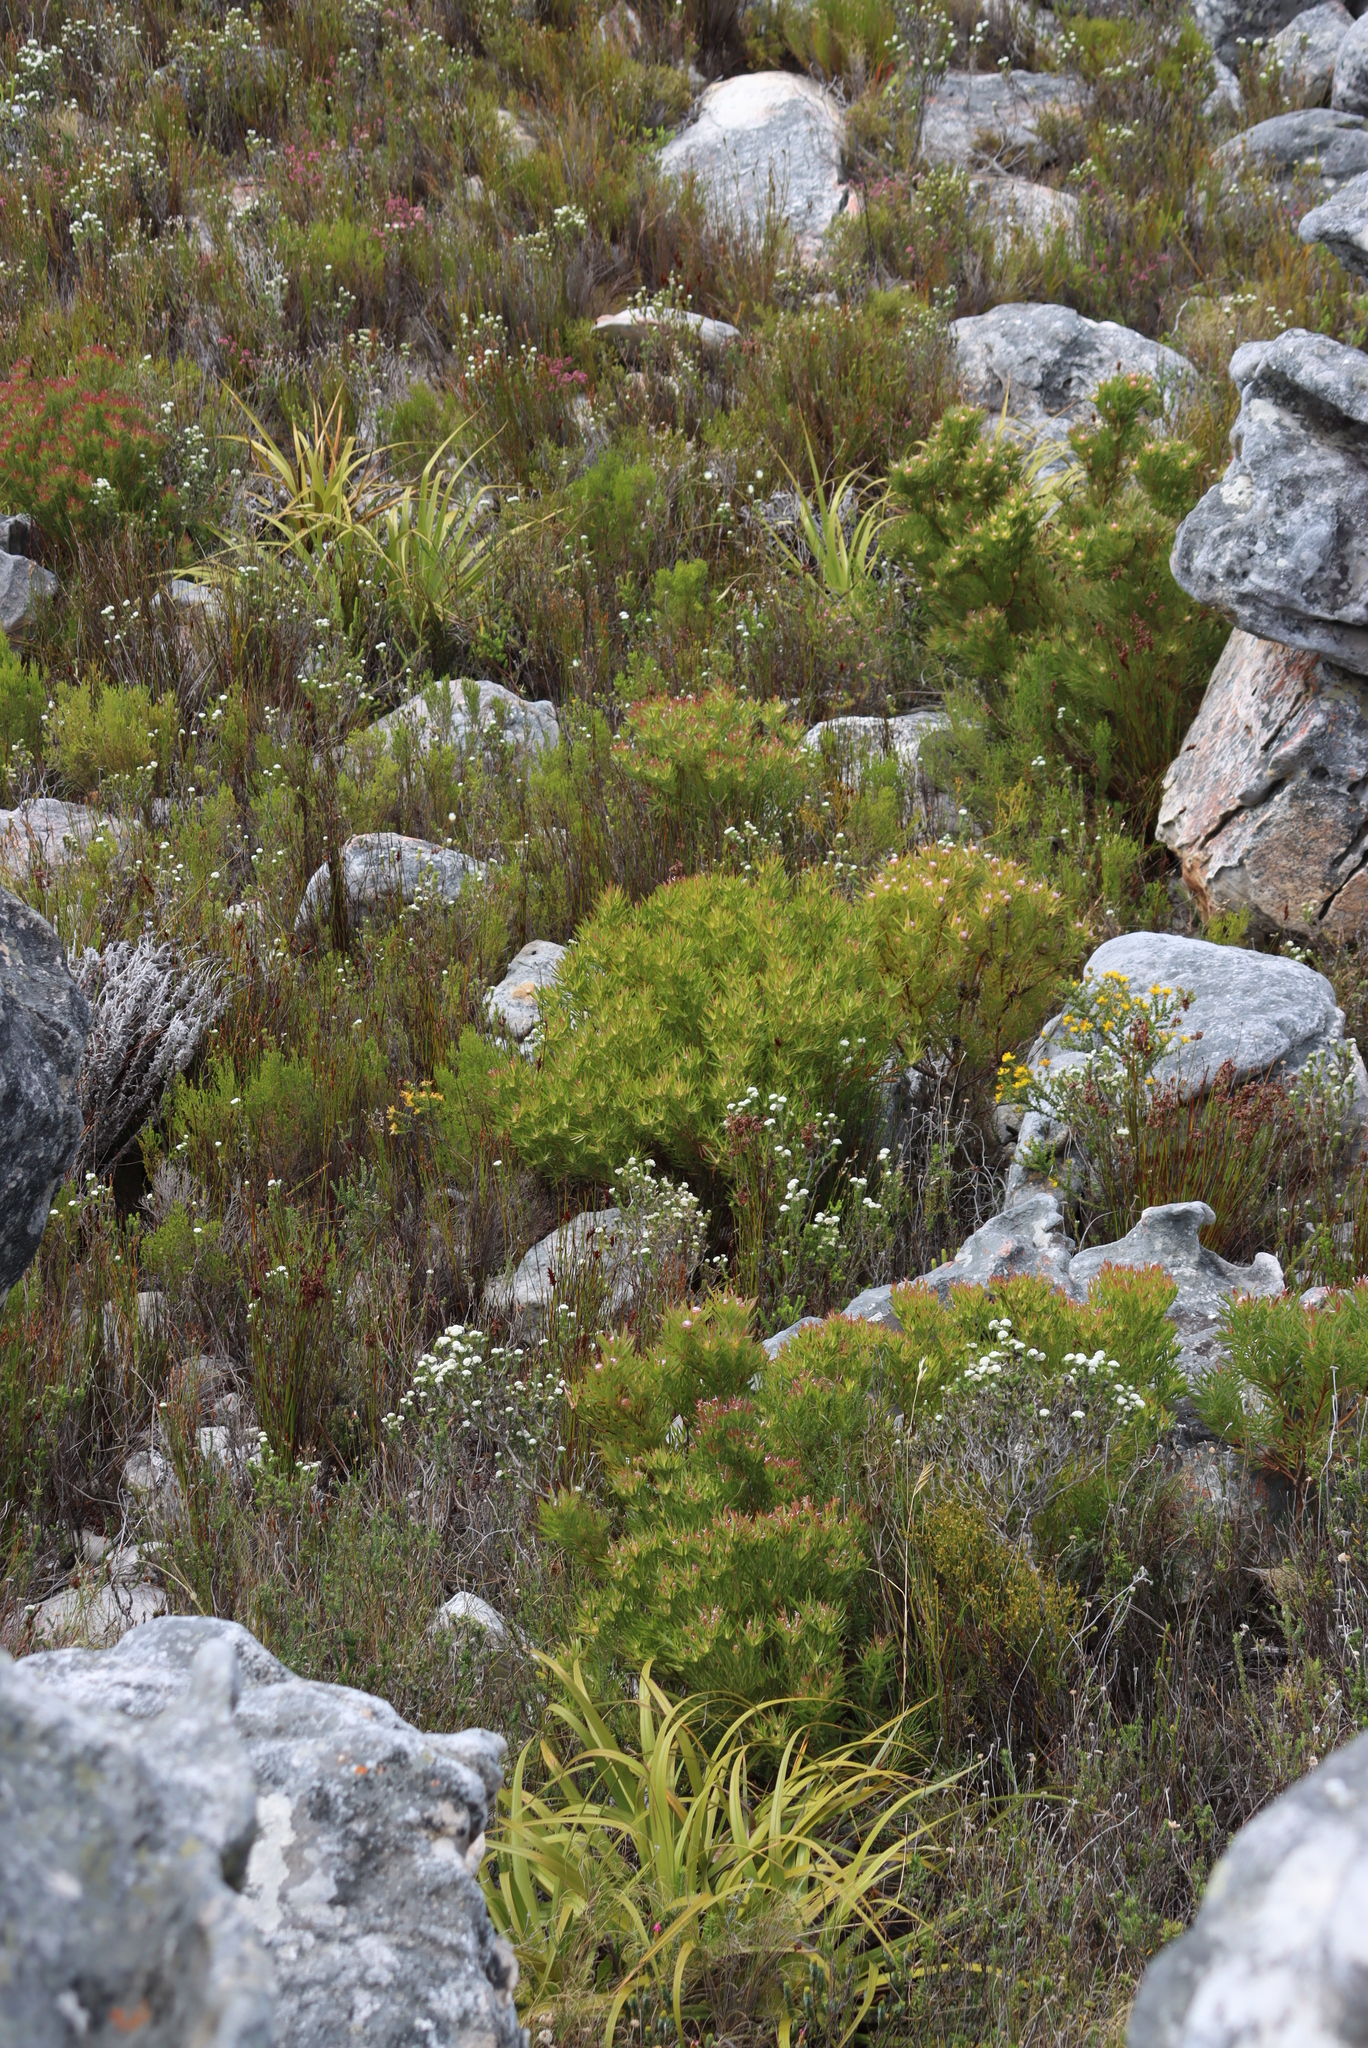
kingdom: Plantae
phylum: Tracheophyta
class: Magnoliopsida
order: Proteales
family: Proteaceae
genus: Leucadendron
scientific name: Leucadendron xanthoconus
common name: Sickle-leaf conebush
